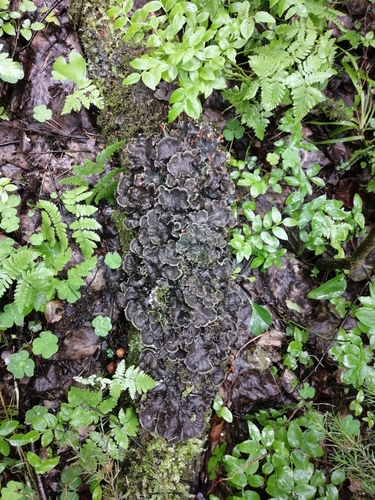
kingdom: Fungi
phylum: Ascomycota
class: Lecanoromycetes
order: Peltigerales
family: Peltigeraceae
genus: Peltigera
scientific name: Peltigera
